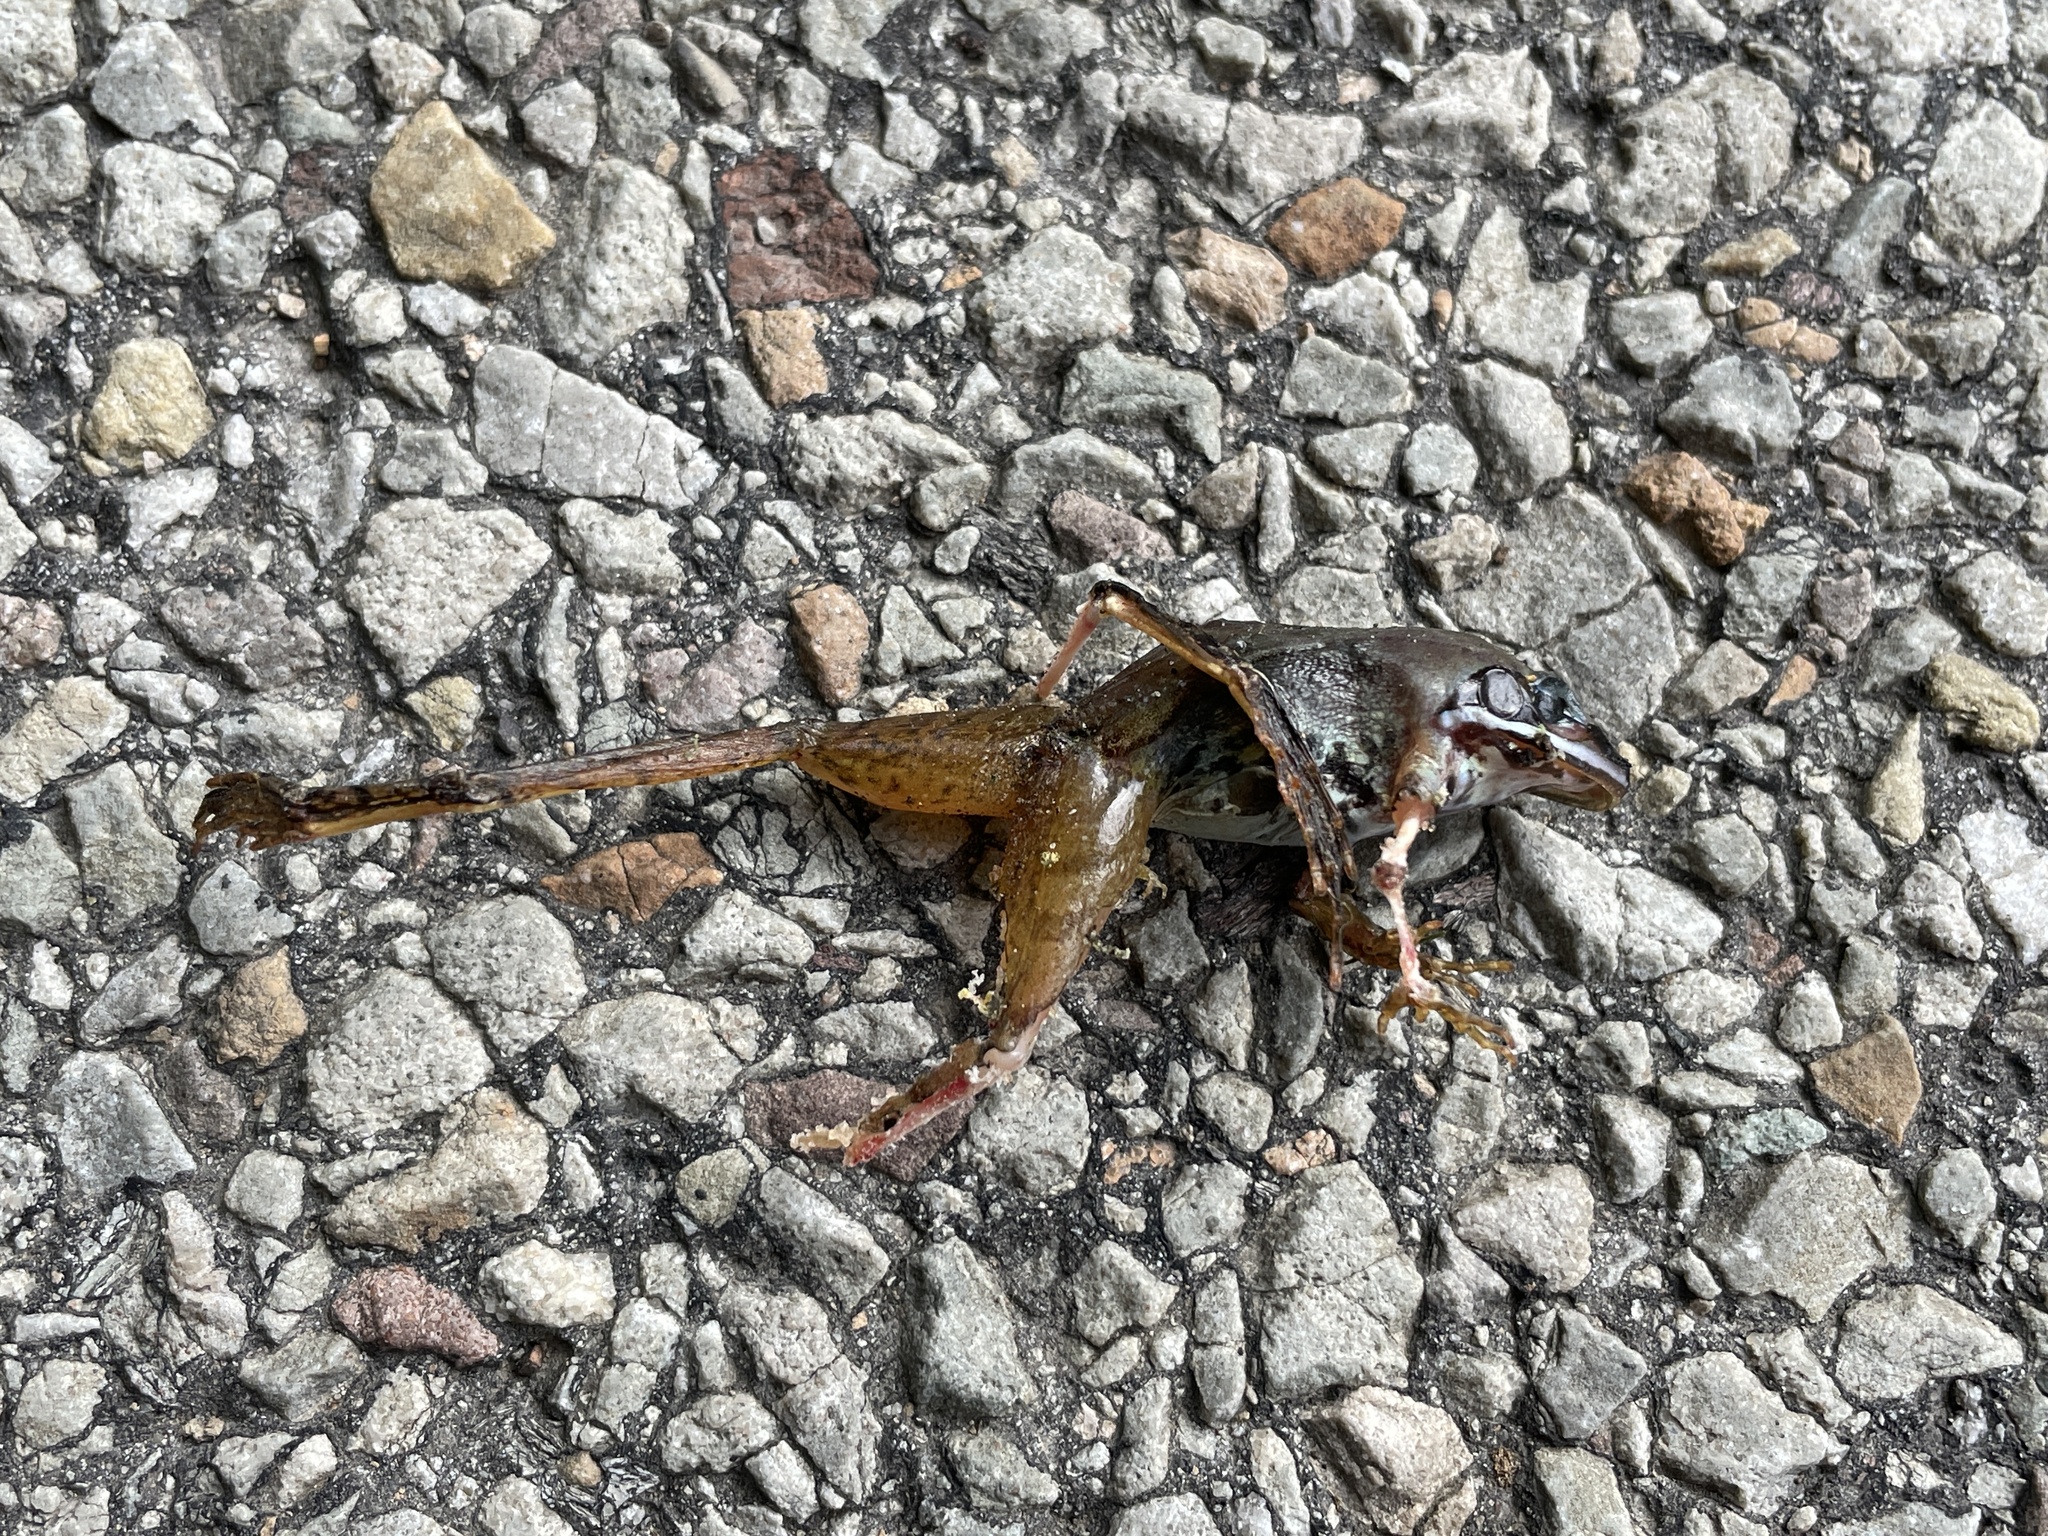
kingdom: Animalia
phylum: Chordata
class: Amphibia
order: Anura
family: Ranidae
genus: Lithobates
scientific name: Lithobates sylvaticus
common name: Wood frog
